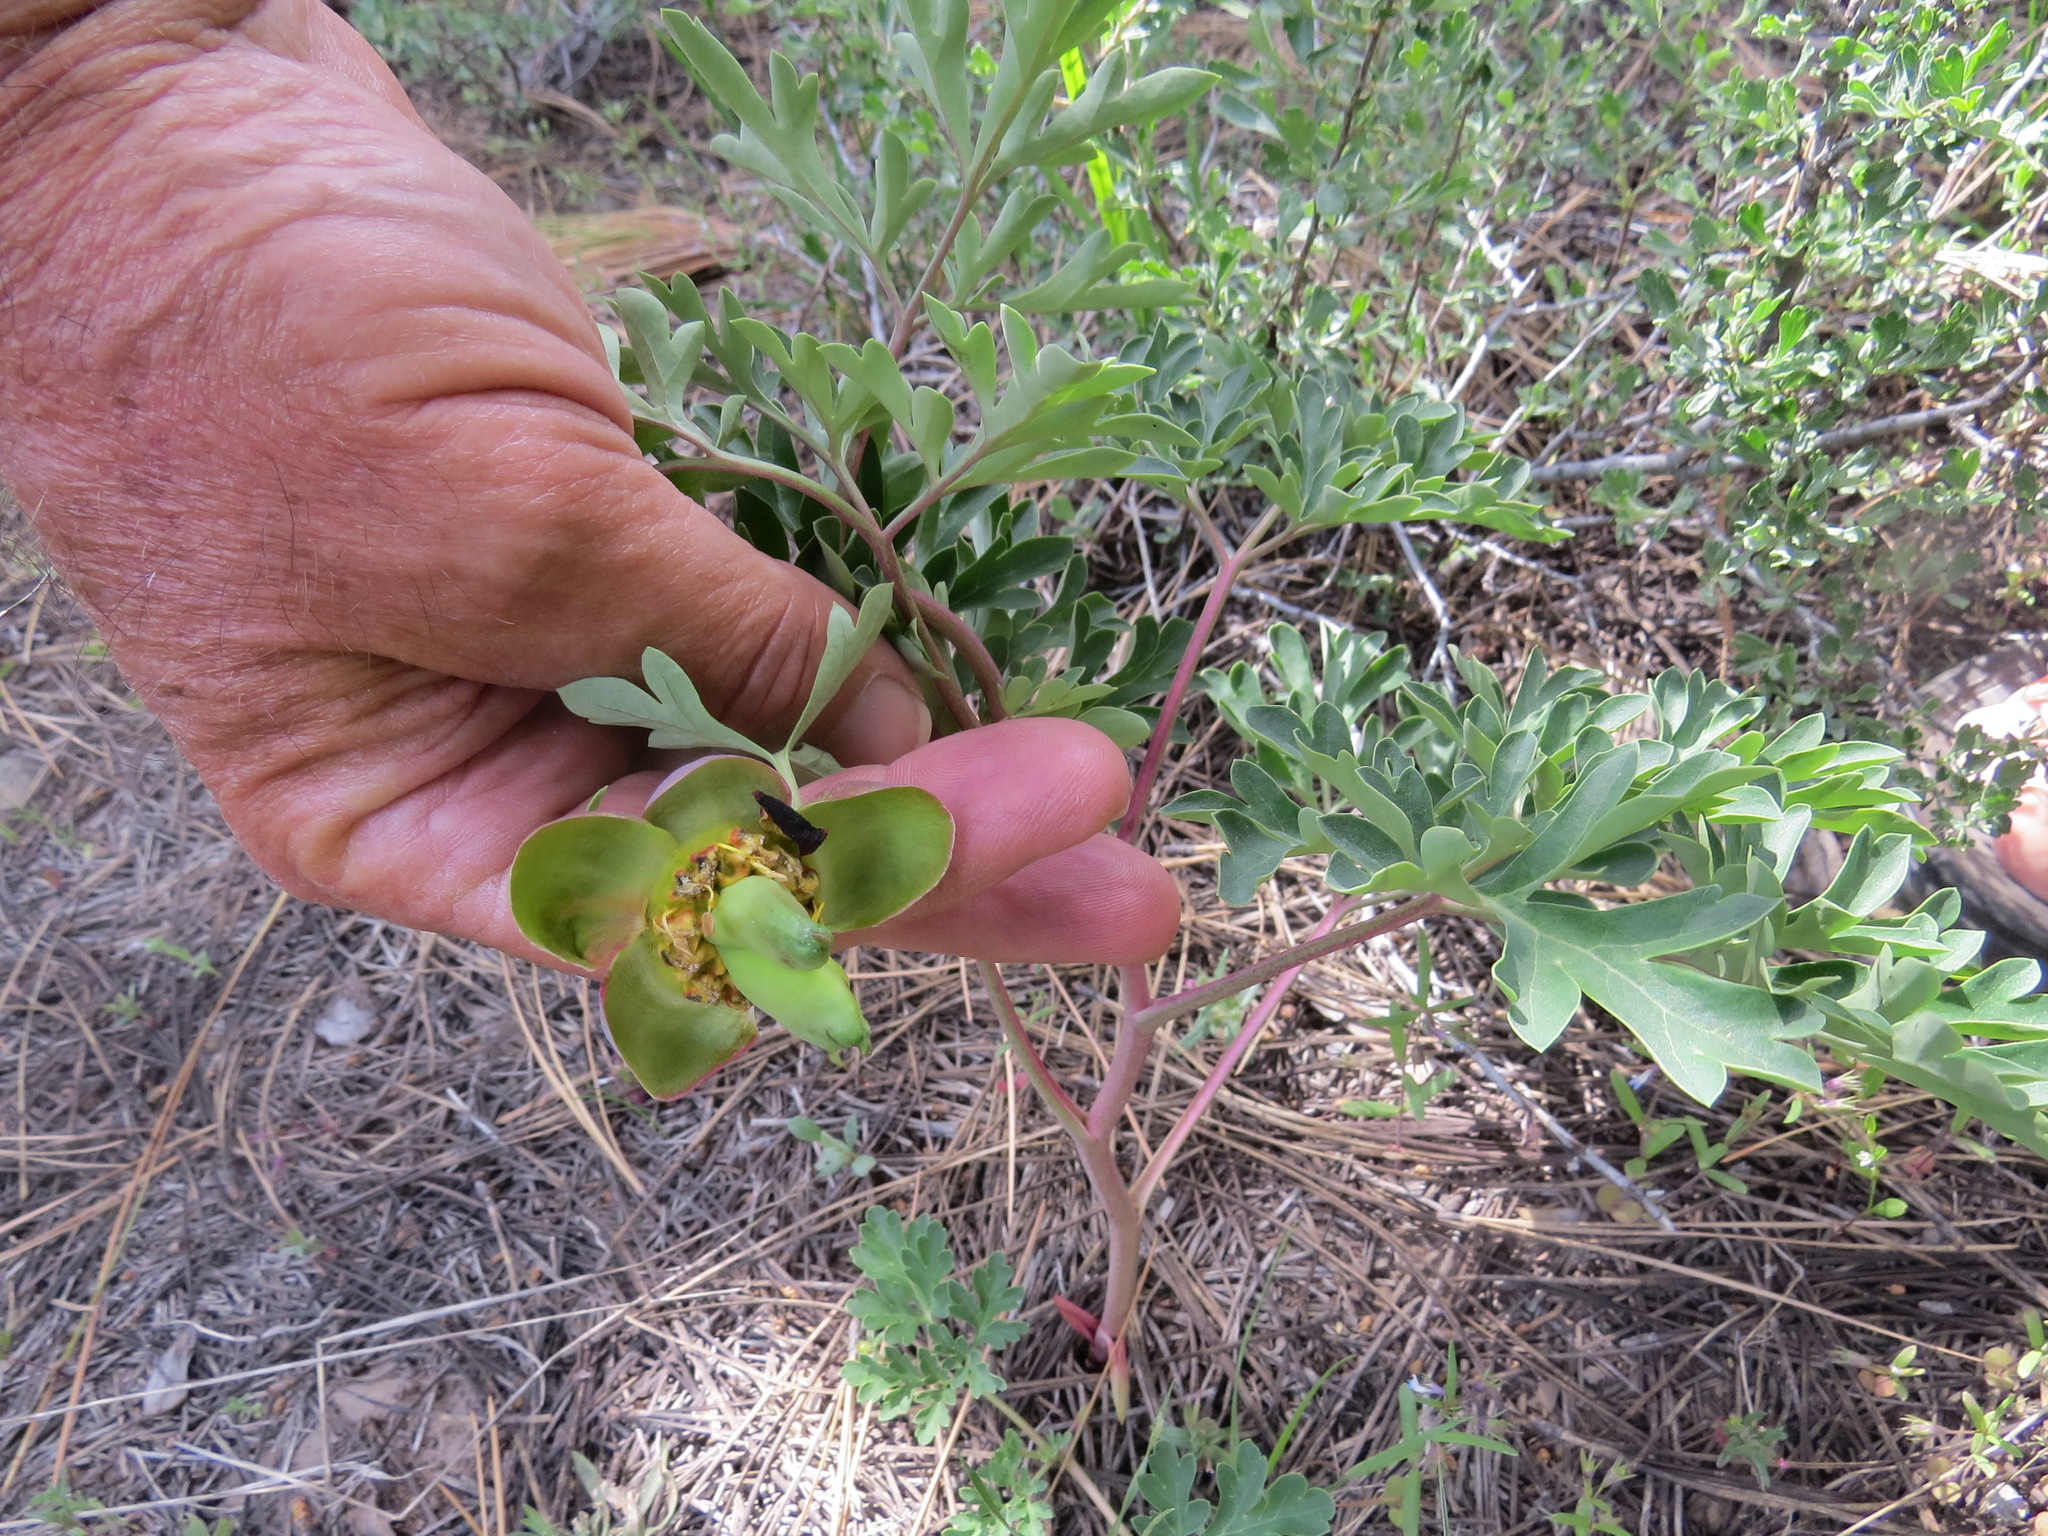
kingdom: Plantae
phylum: Tracheophyta
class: Magnoliopsida
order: Saxifragales
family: Paeoniaceae
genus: Paeonia
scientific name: Paeonia brownii
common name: Brown's peony
